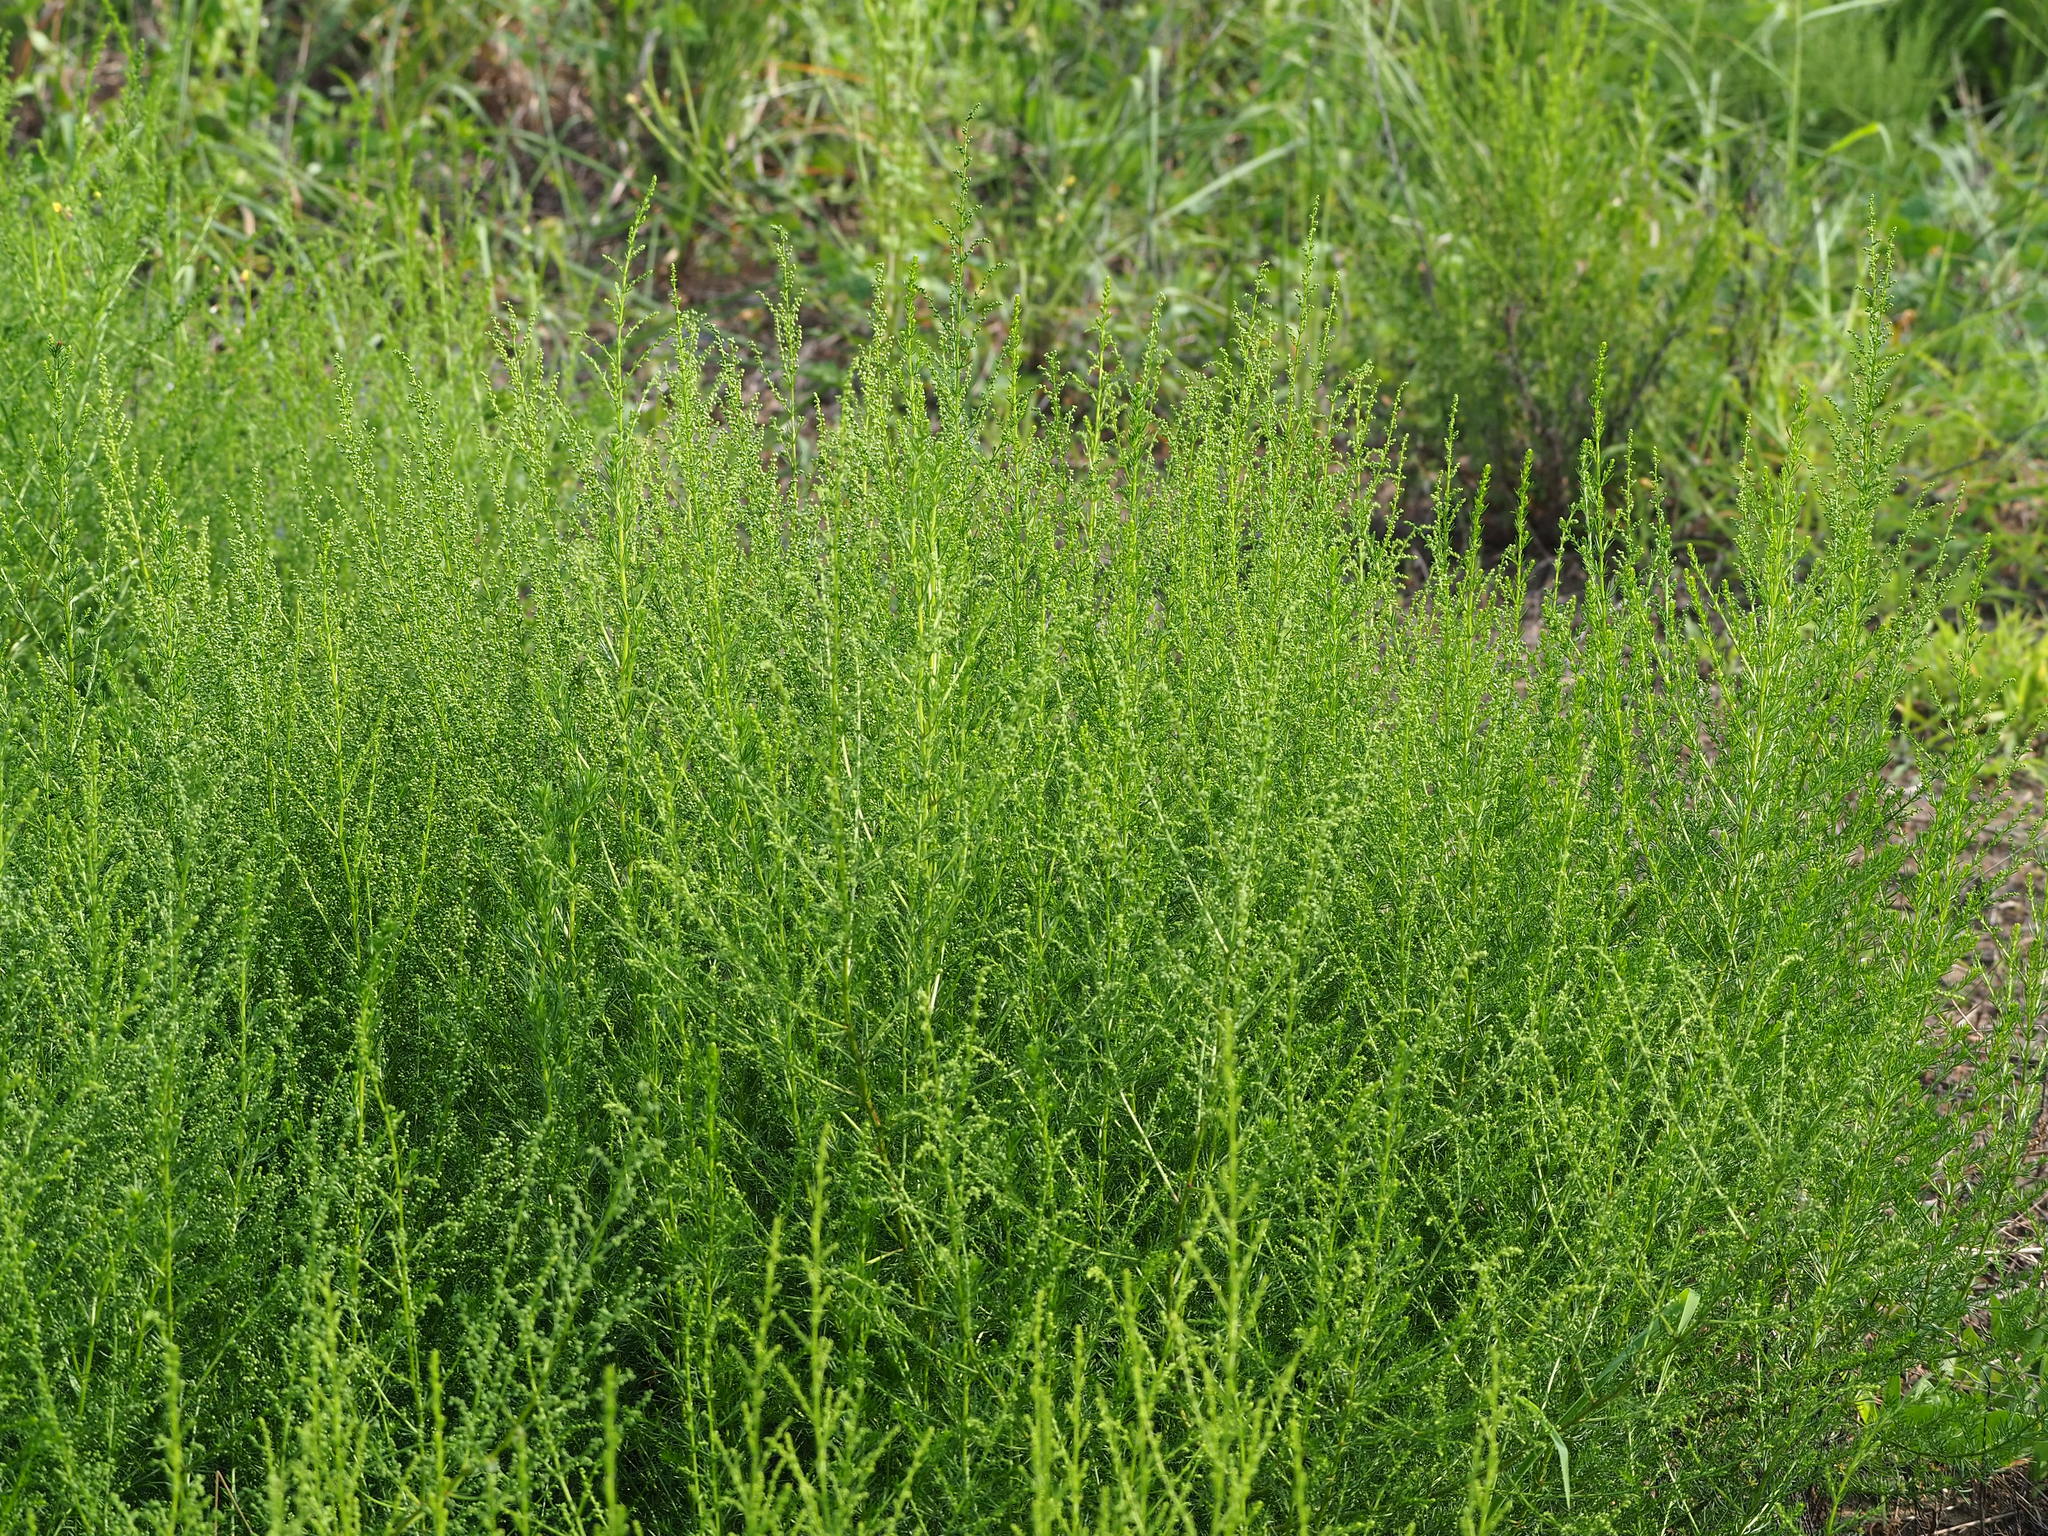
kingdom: Plantae
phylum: Tracheophyta
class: Magnoliopsida
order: Asterales
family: Asteraceae
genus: Artemisia
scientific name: Artemisia capillaris
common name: Yin-chen wormwood
